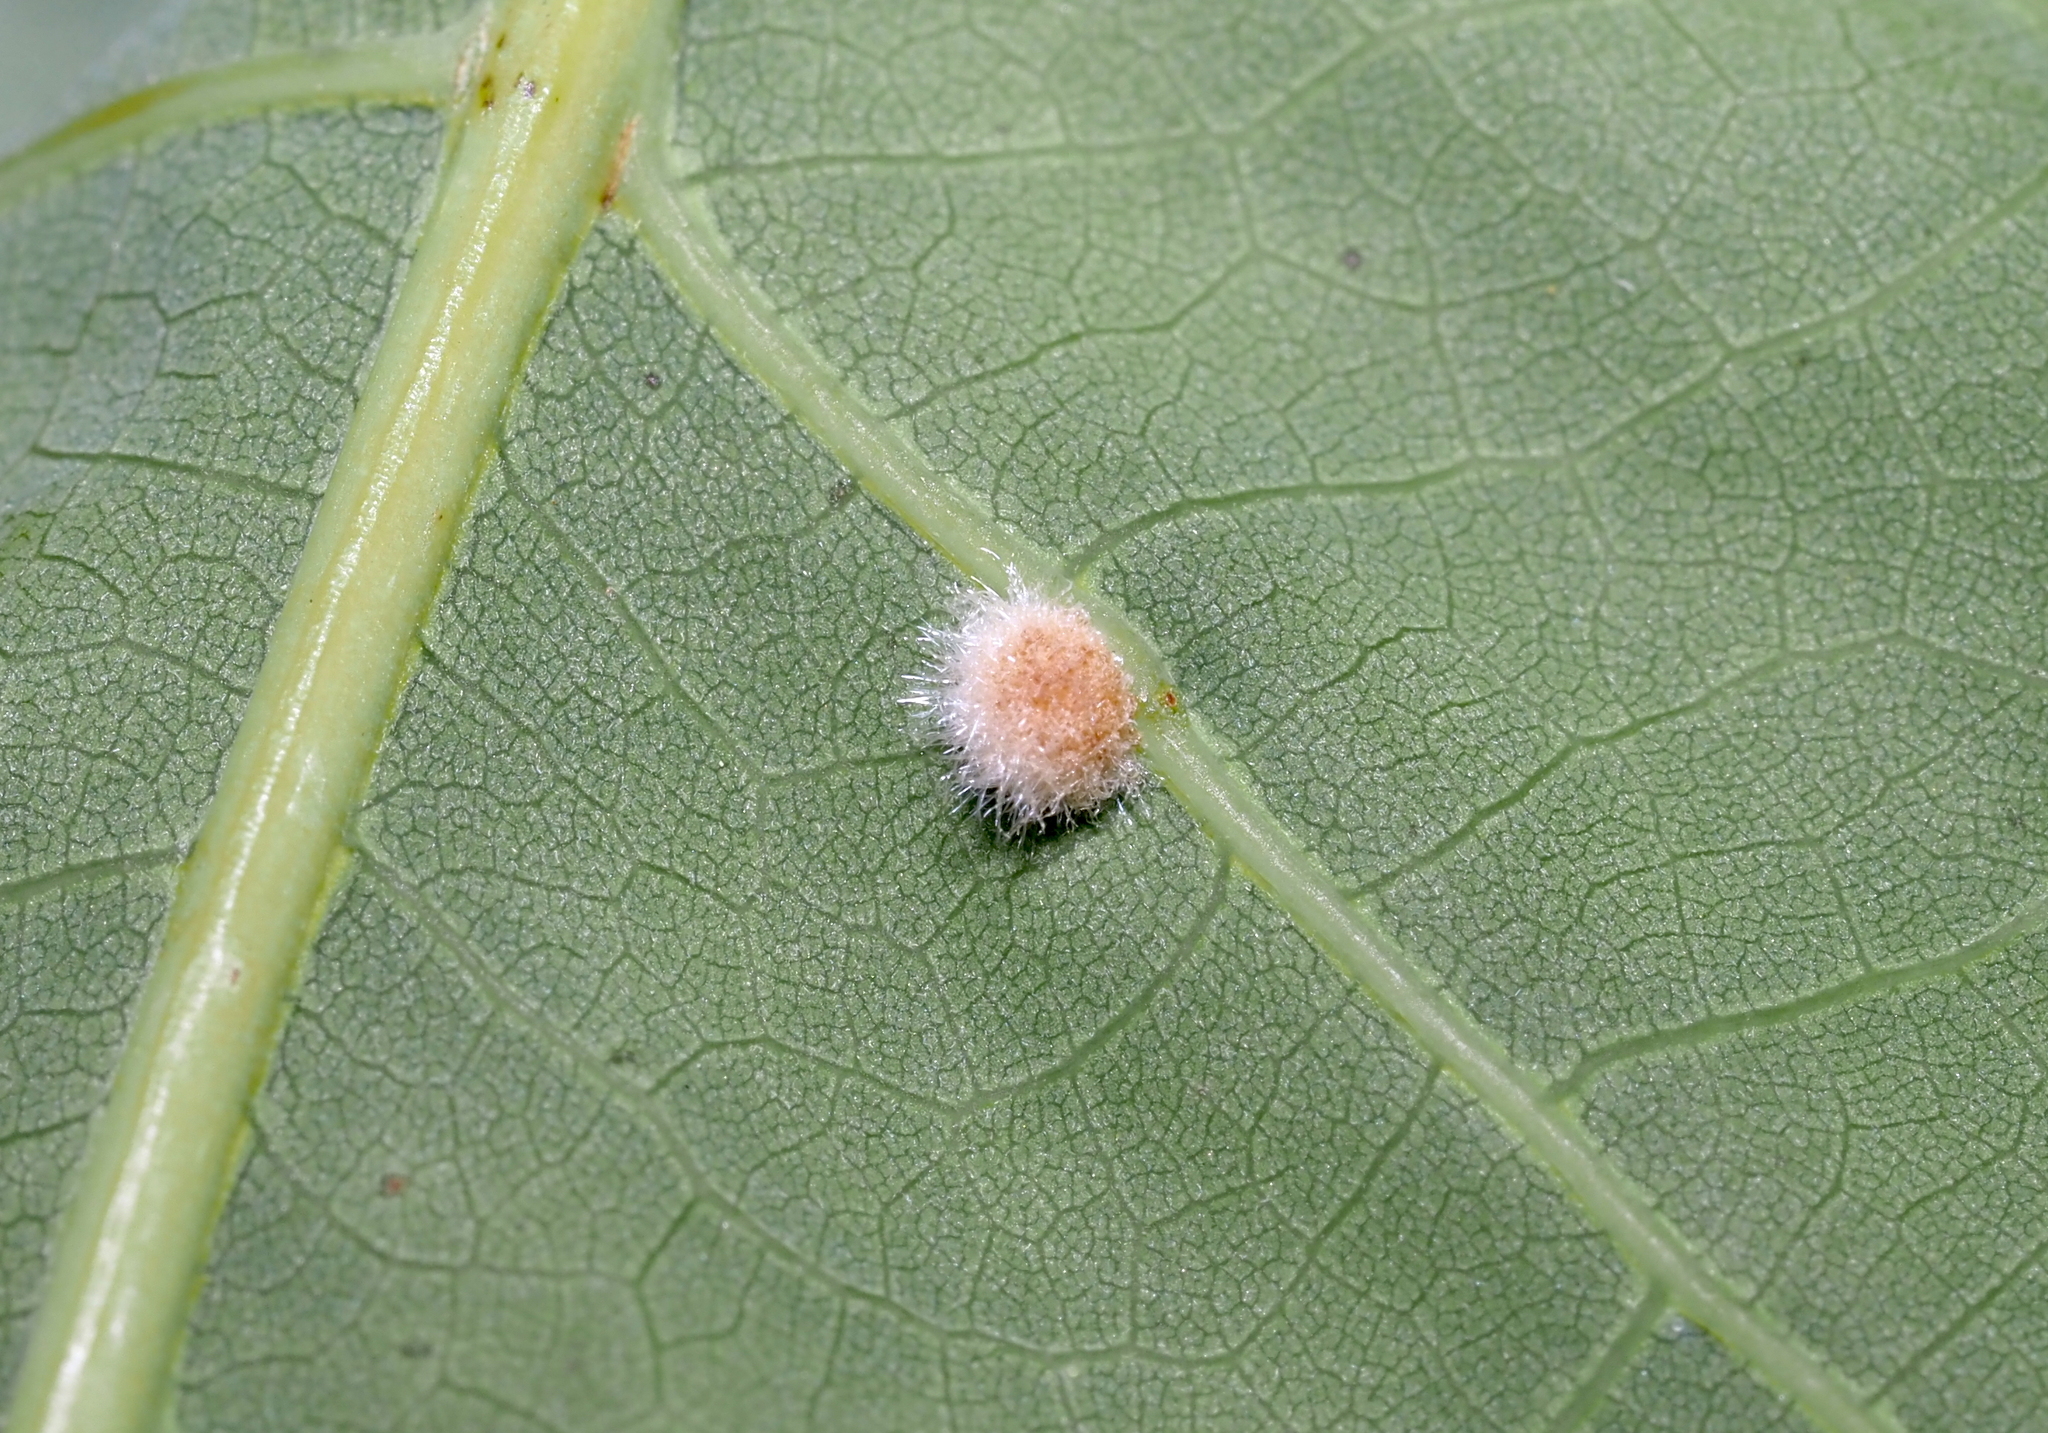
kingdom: Animalia
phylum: Arthropoda
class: Insecta
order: Hymenoptera
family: Cynipidae
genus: Philonix
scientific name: Philonix fulvicollis
